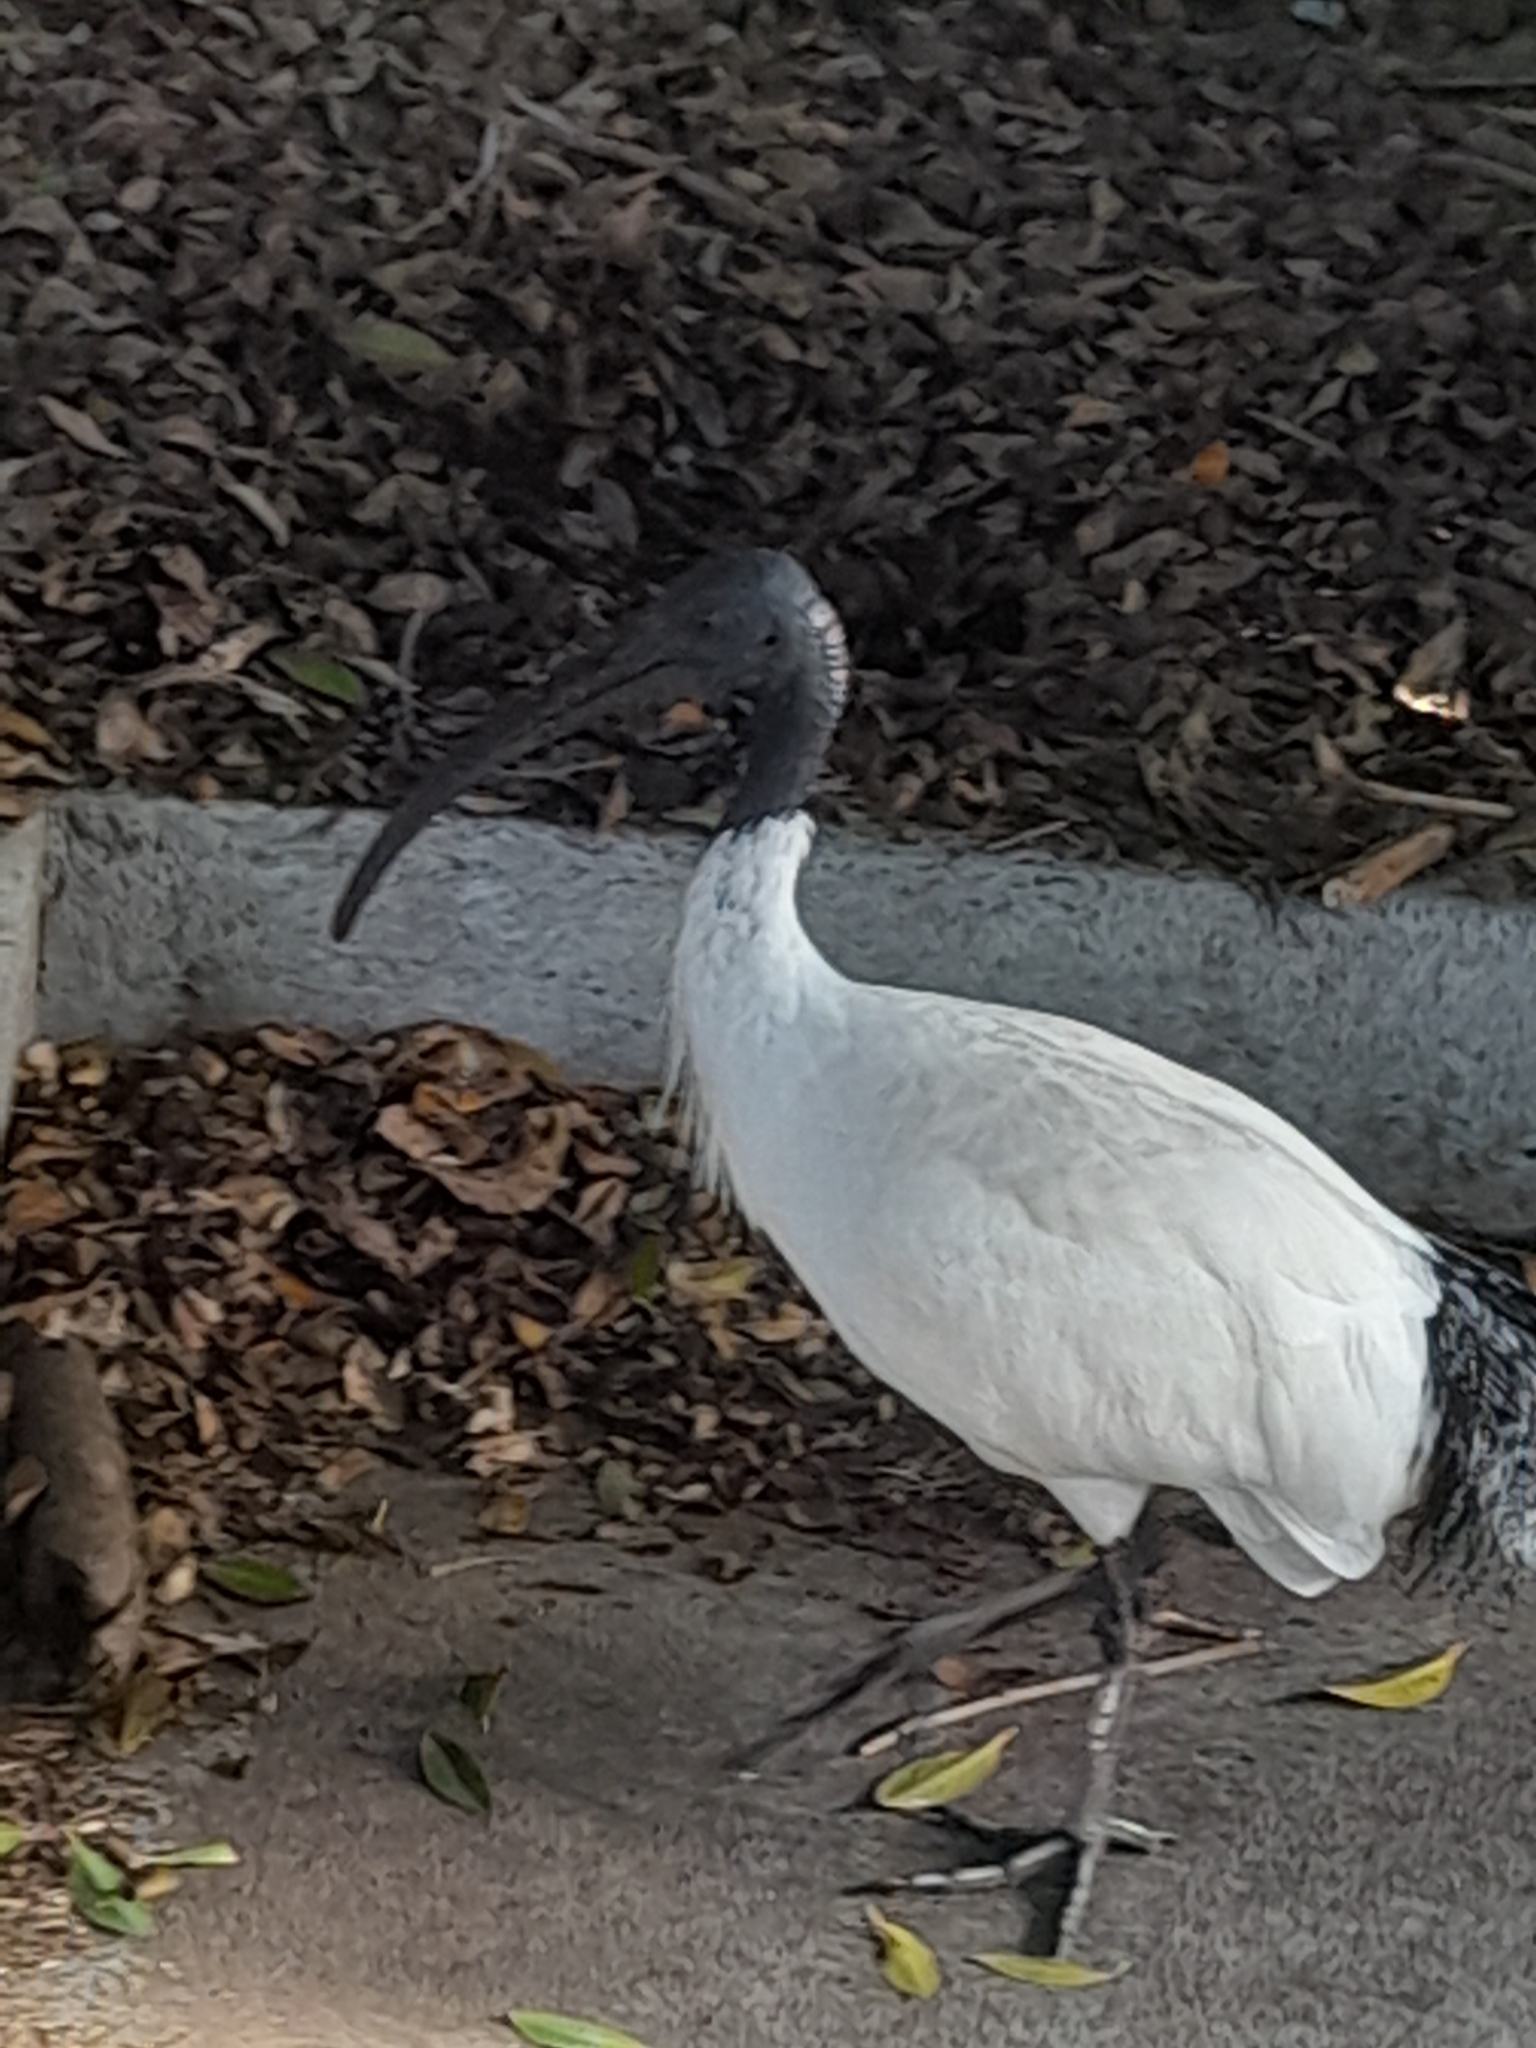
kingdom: Animalia
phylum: Chordata
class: Aves
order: Pelecaniformes
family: Threskiornithidae
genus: Threskiornis
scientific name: Threskiornis molucca
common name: Australian white ibis
